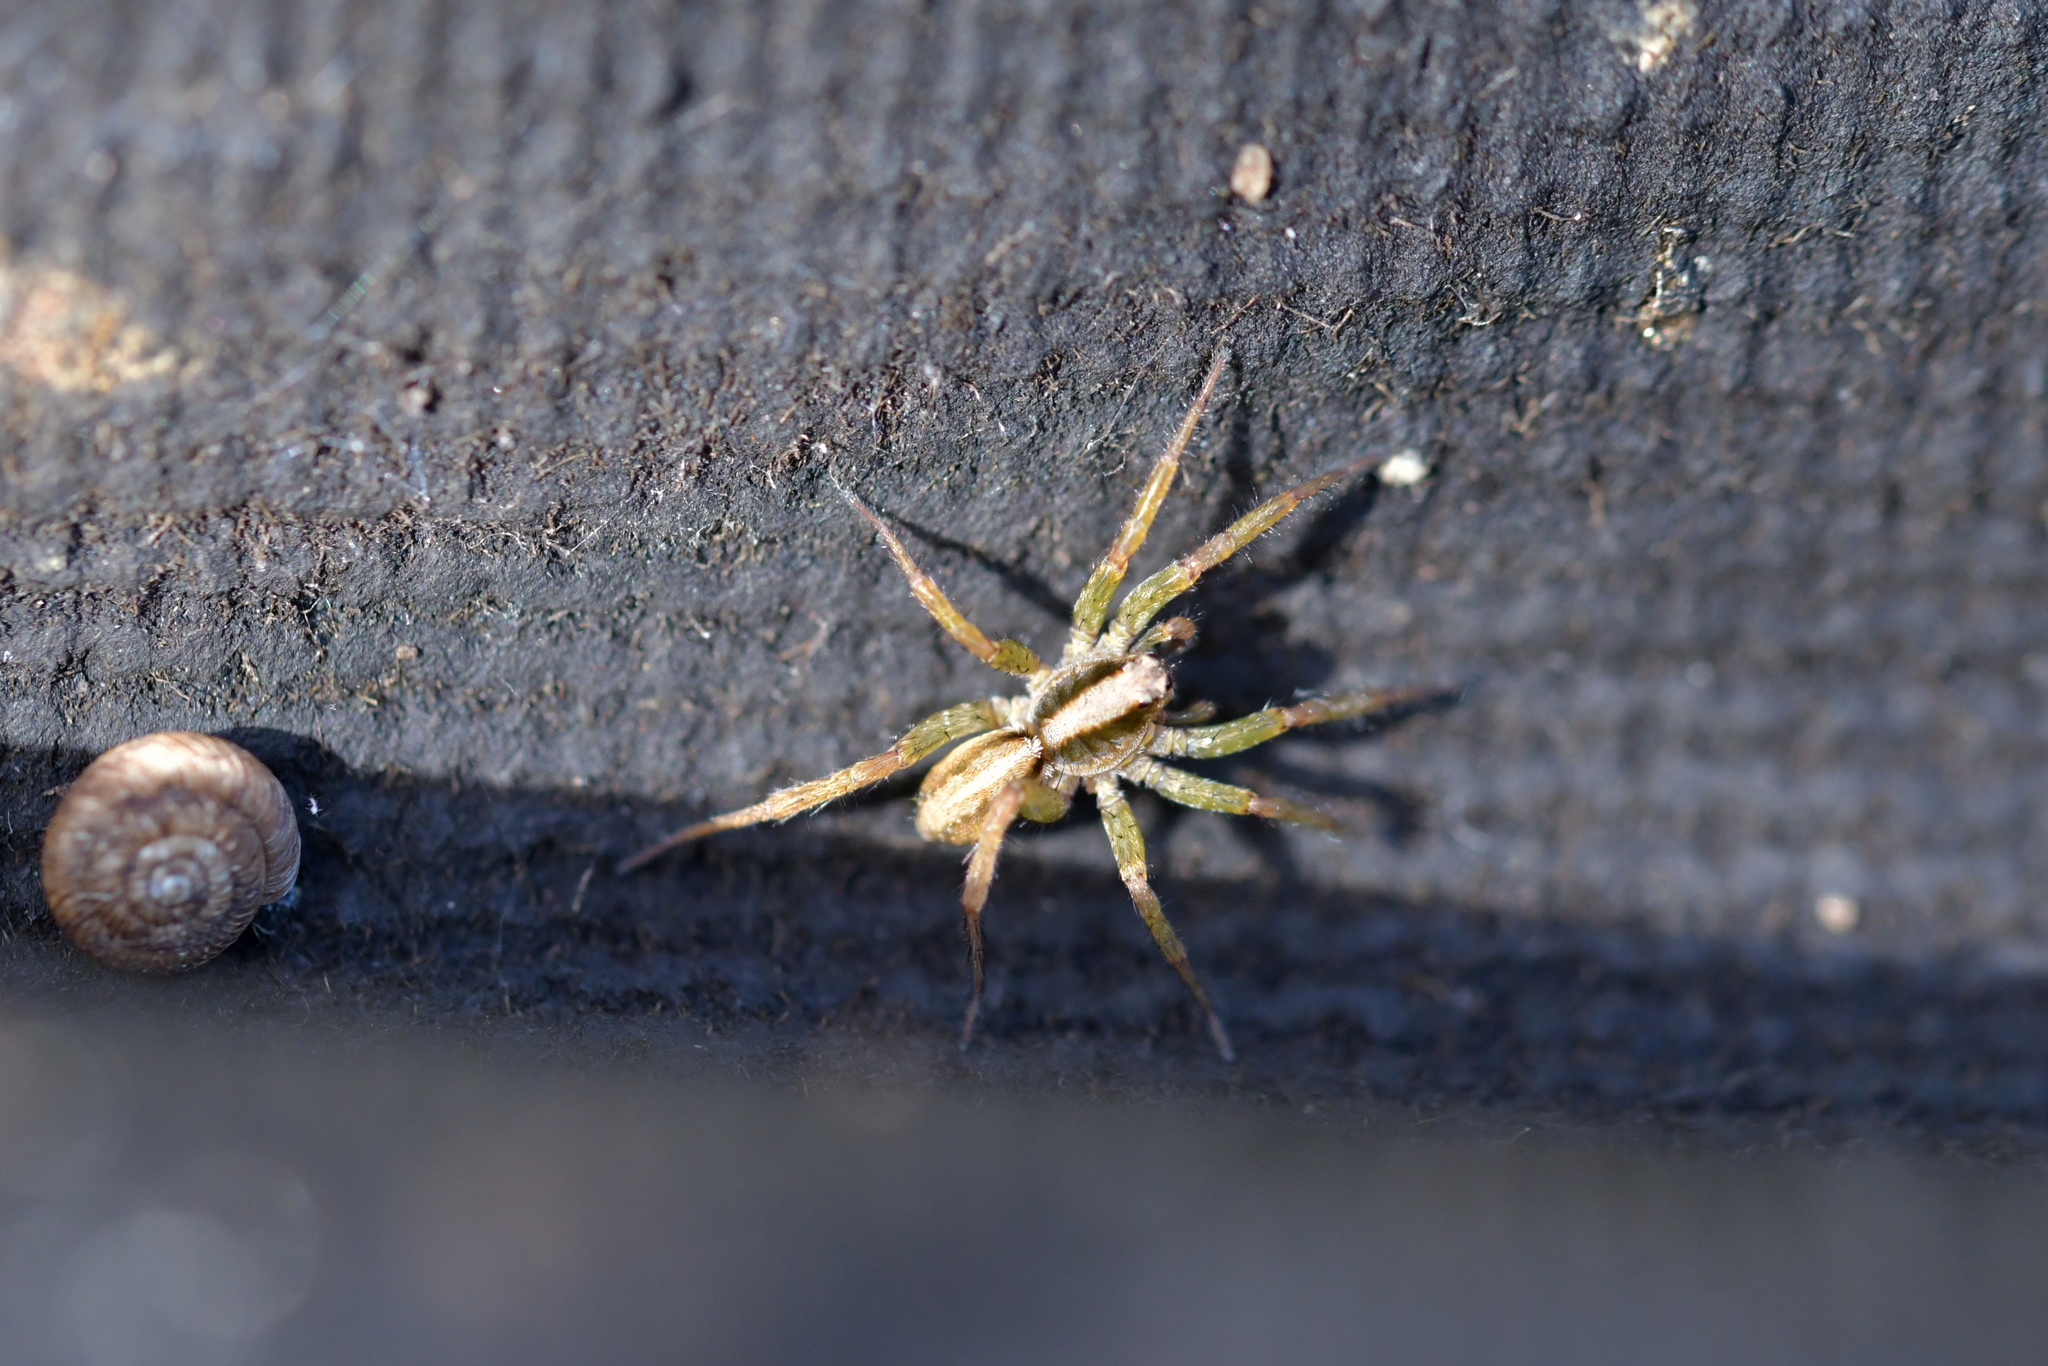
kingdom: Animalia
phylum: Arthropoda
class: Arachnida
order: Araneae
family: Lycosidae
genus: Anoteropsis
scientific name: Anoteropsis hilaris
